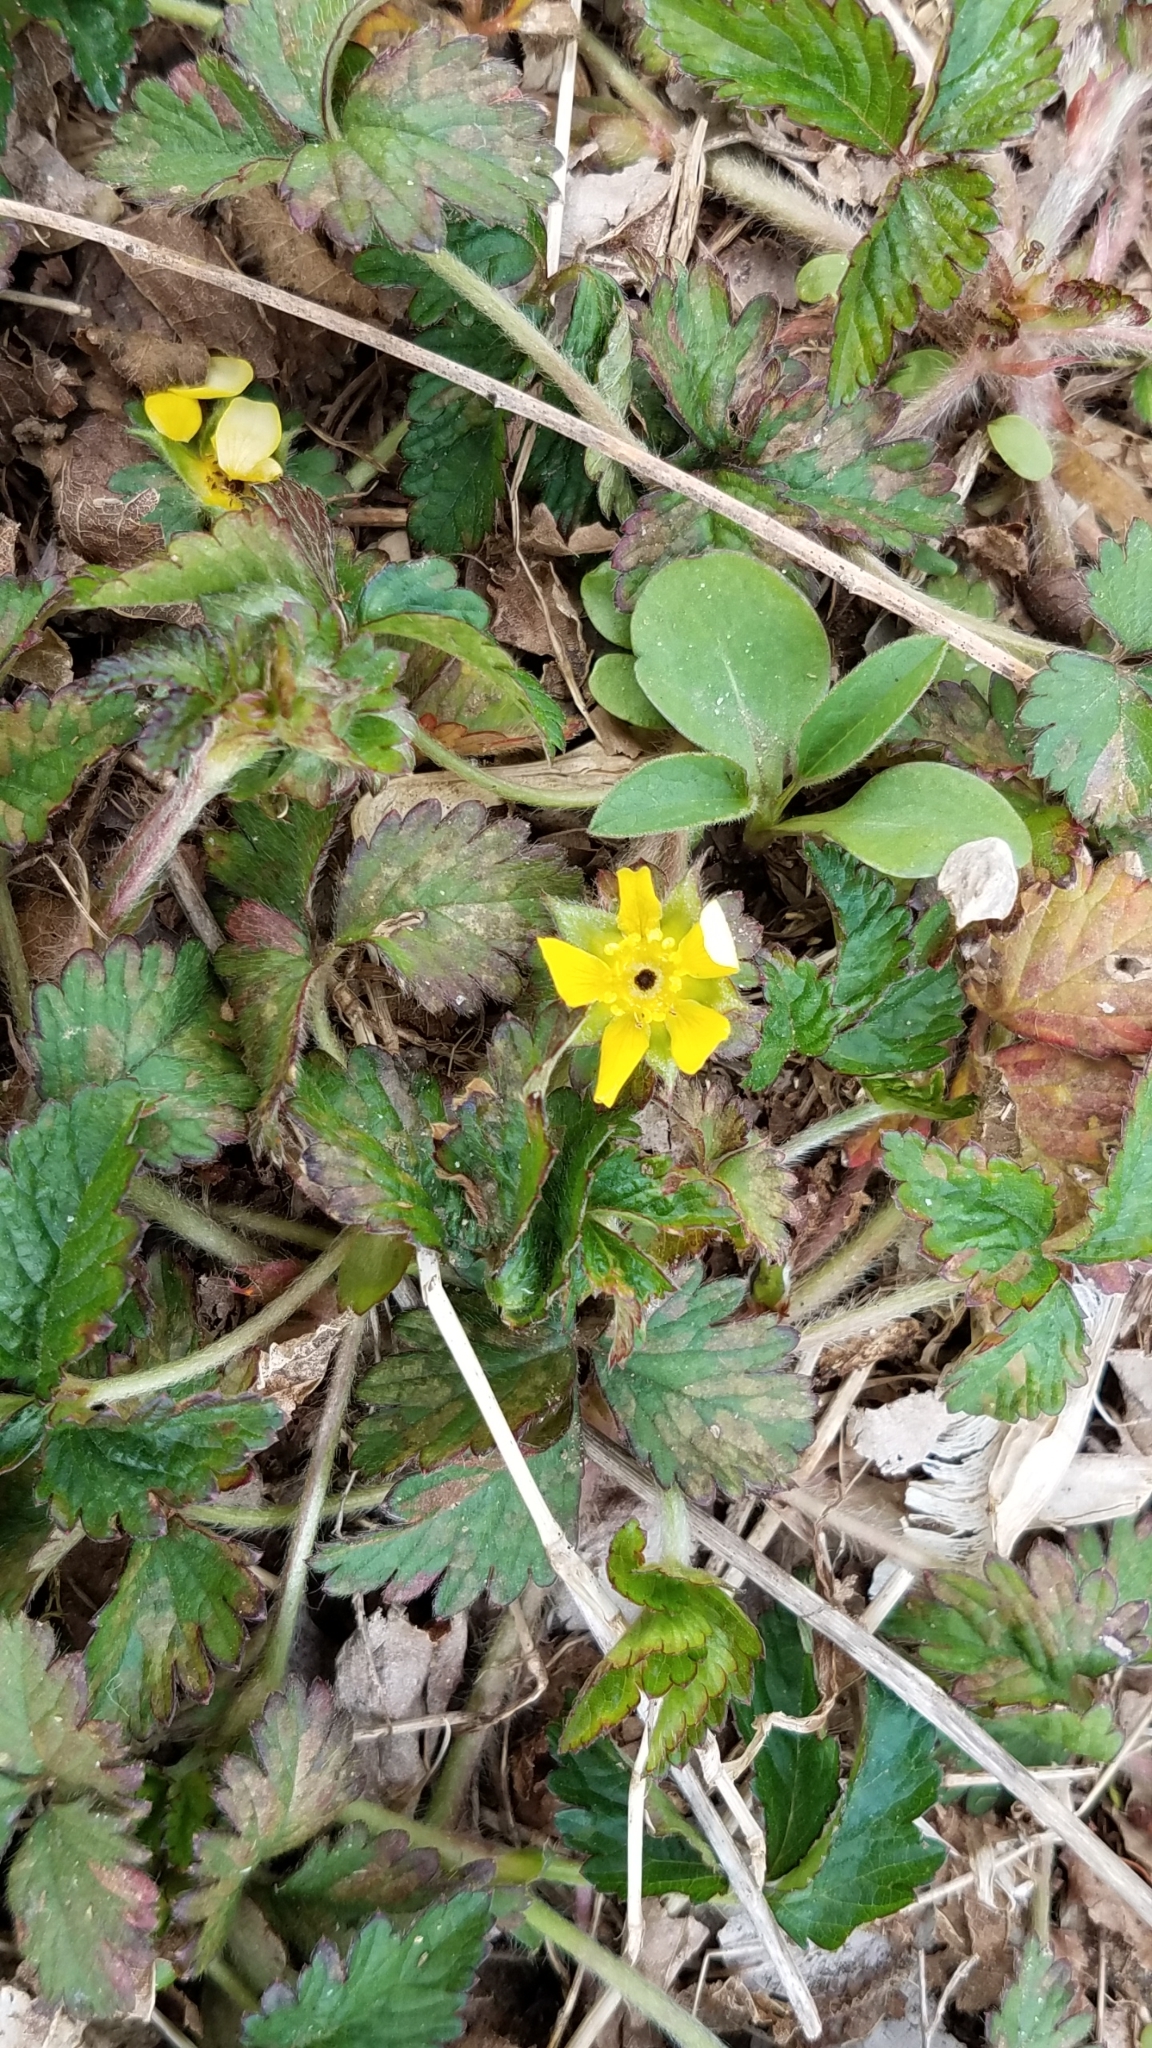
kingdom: Plantae
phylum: Tracheophyta
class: Magnoliopsida
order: Rosales
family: Rosaceae
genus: Potentilla
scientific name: Potentilla indica
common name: Yellow-flowered strawberry
